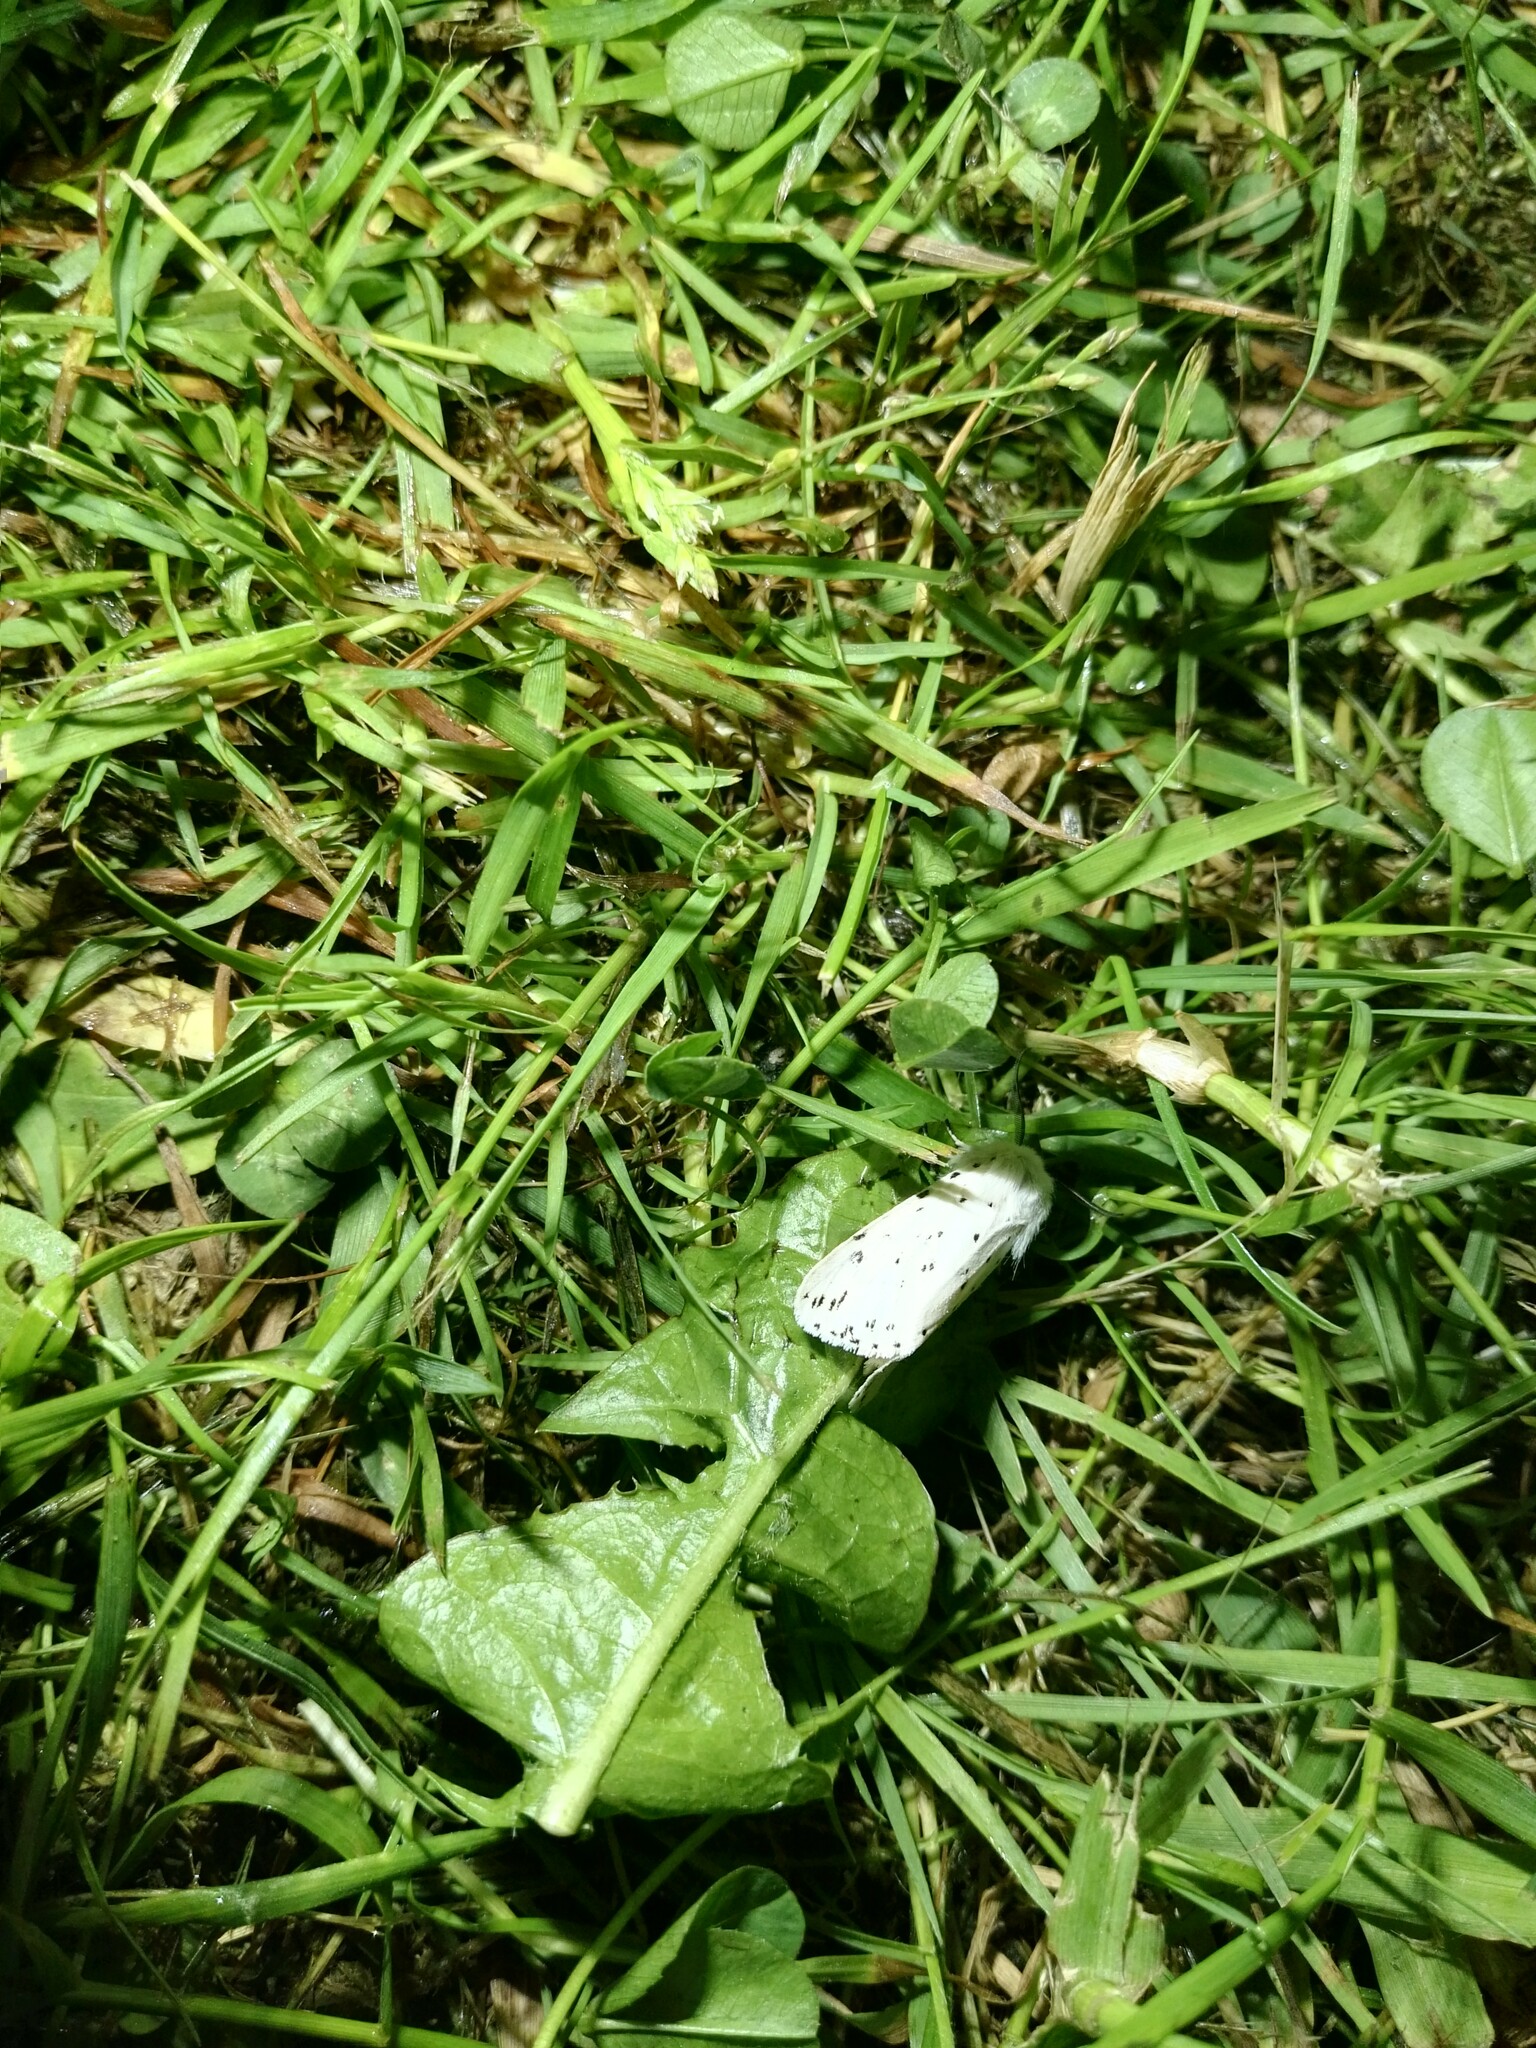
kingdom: Animalia
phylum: Arthropoda
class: Insecta
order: Lepidoptera
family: Erebidae
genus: Spilosoma
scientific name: Spilosoma lubricipeda
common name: White ermine
